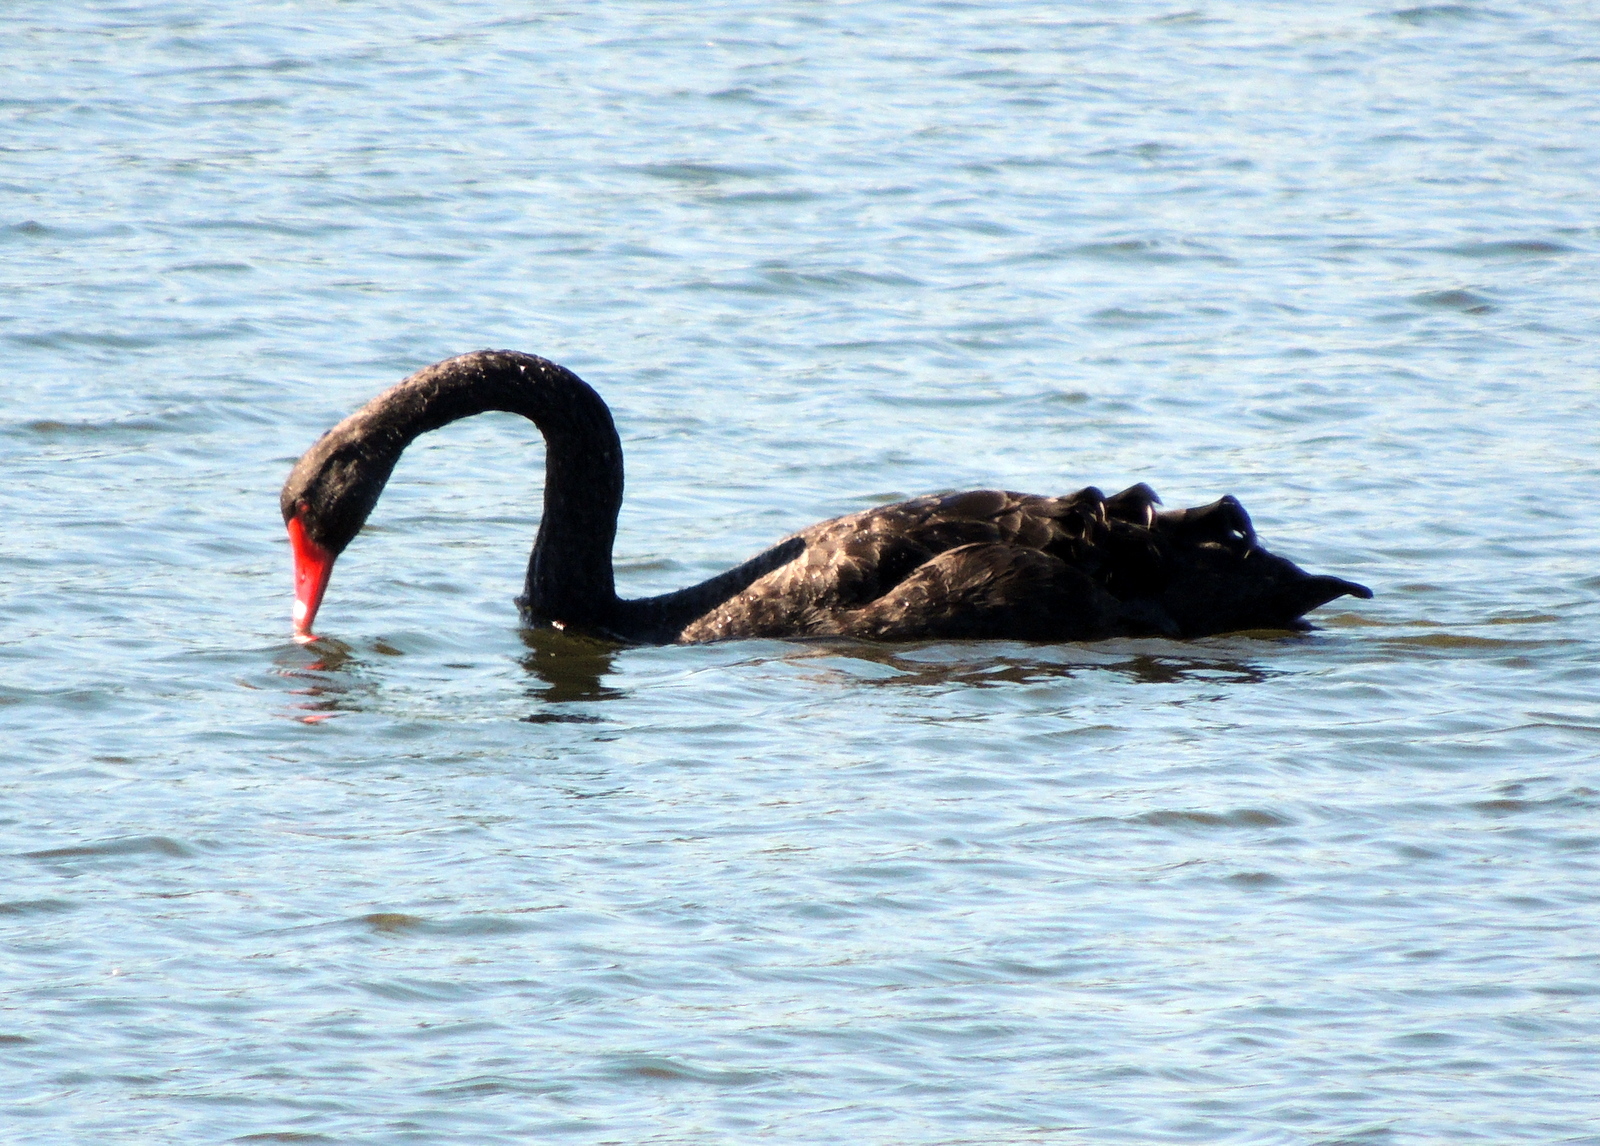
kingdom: Animalia
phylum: Chordata
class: Aves
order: Anseriformes
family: Anatidae
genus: Cygnus
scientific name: Cygnus atratus
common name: Black swan
